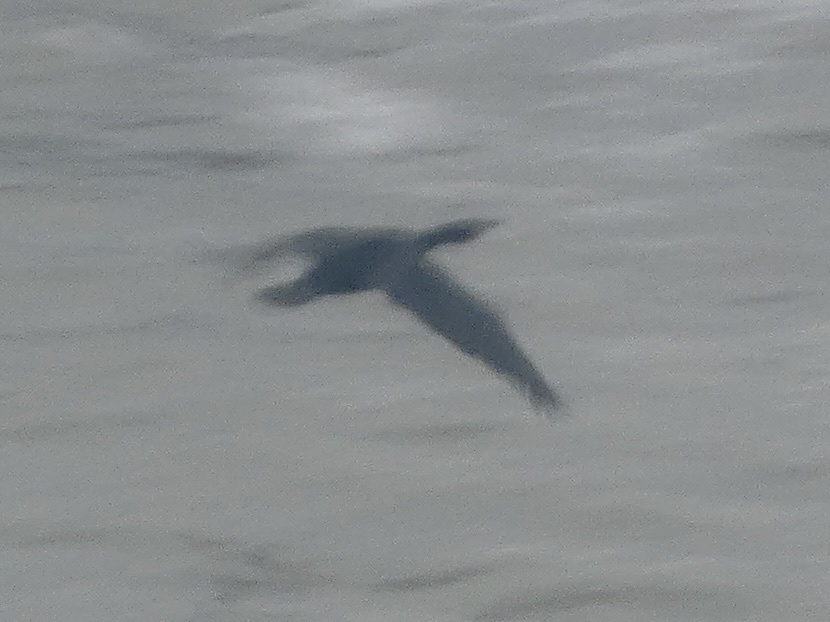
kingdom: Animalia
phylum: Chordata
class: Aves
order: Suliformes
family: Phalacrocoracidae
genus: Phalacrocorax
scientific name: Phalacrocorax carbo
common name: Great cormorant
